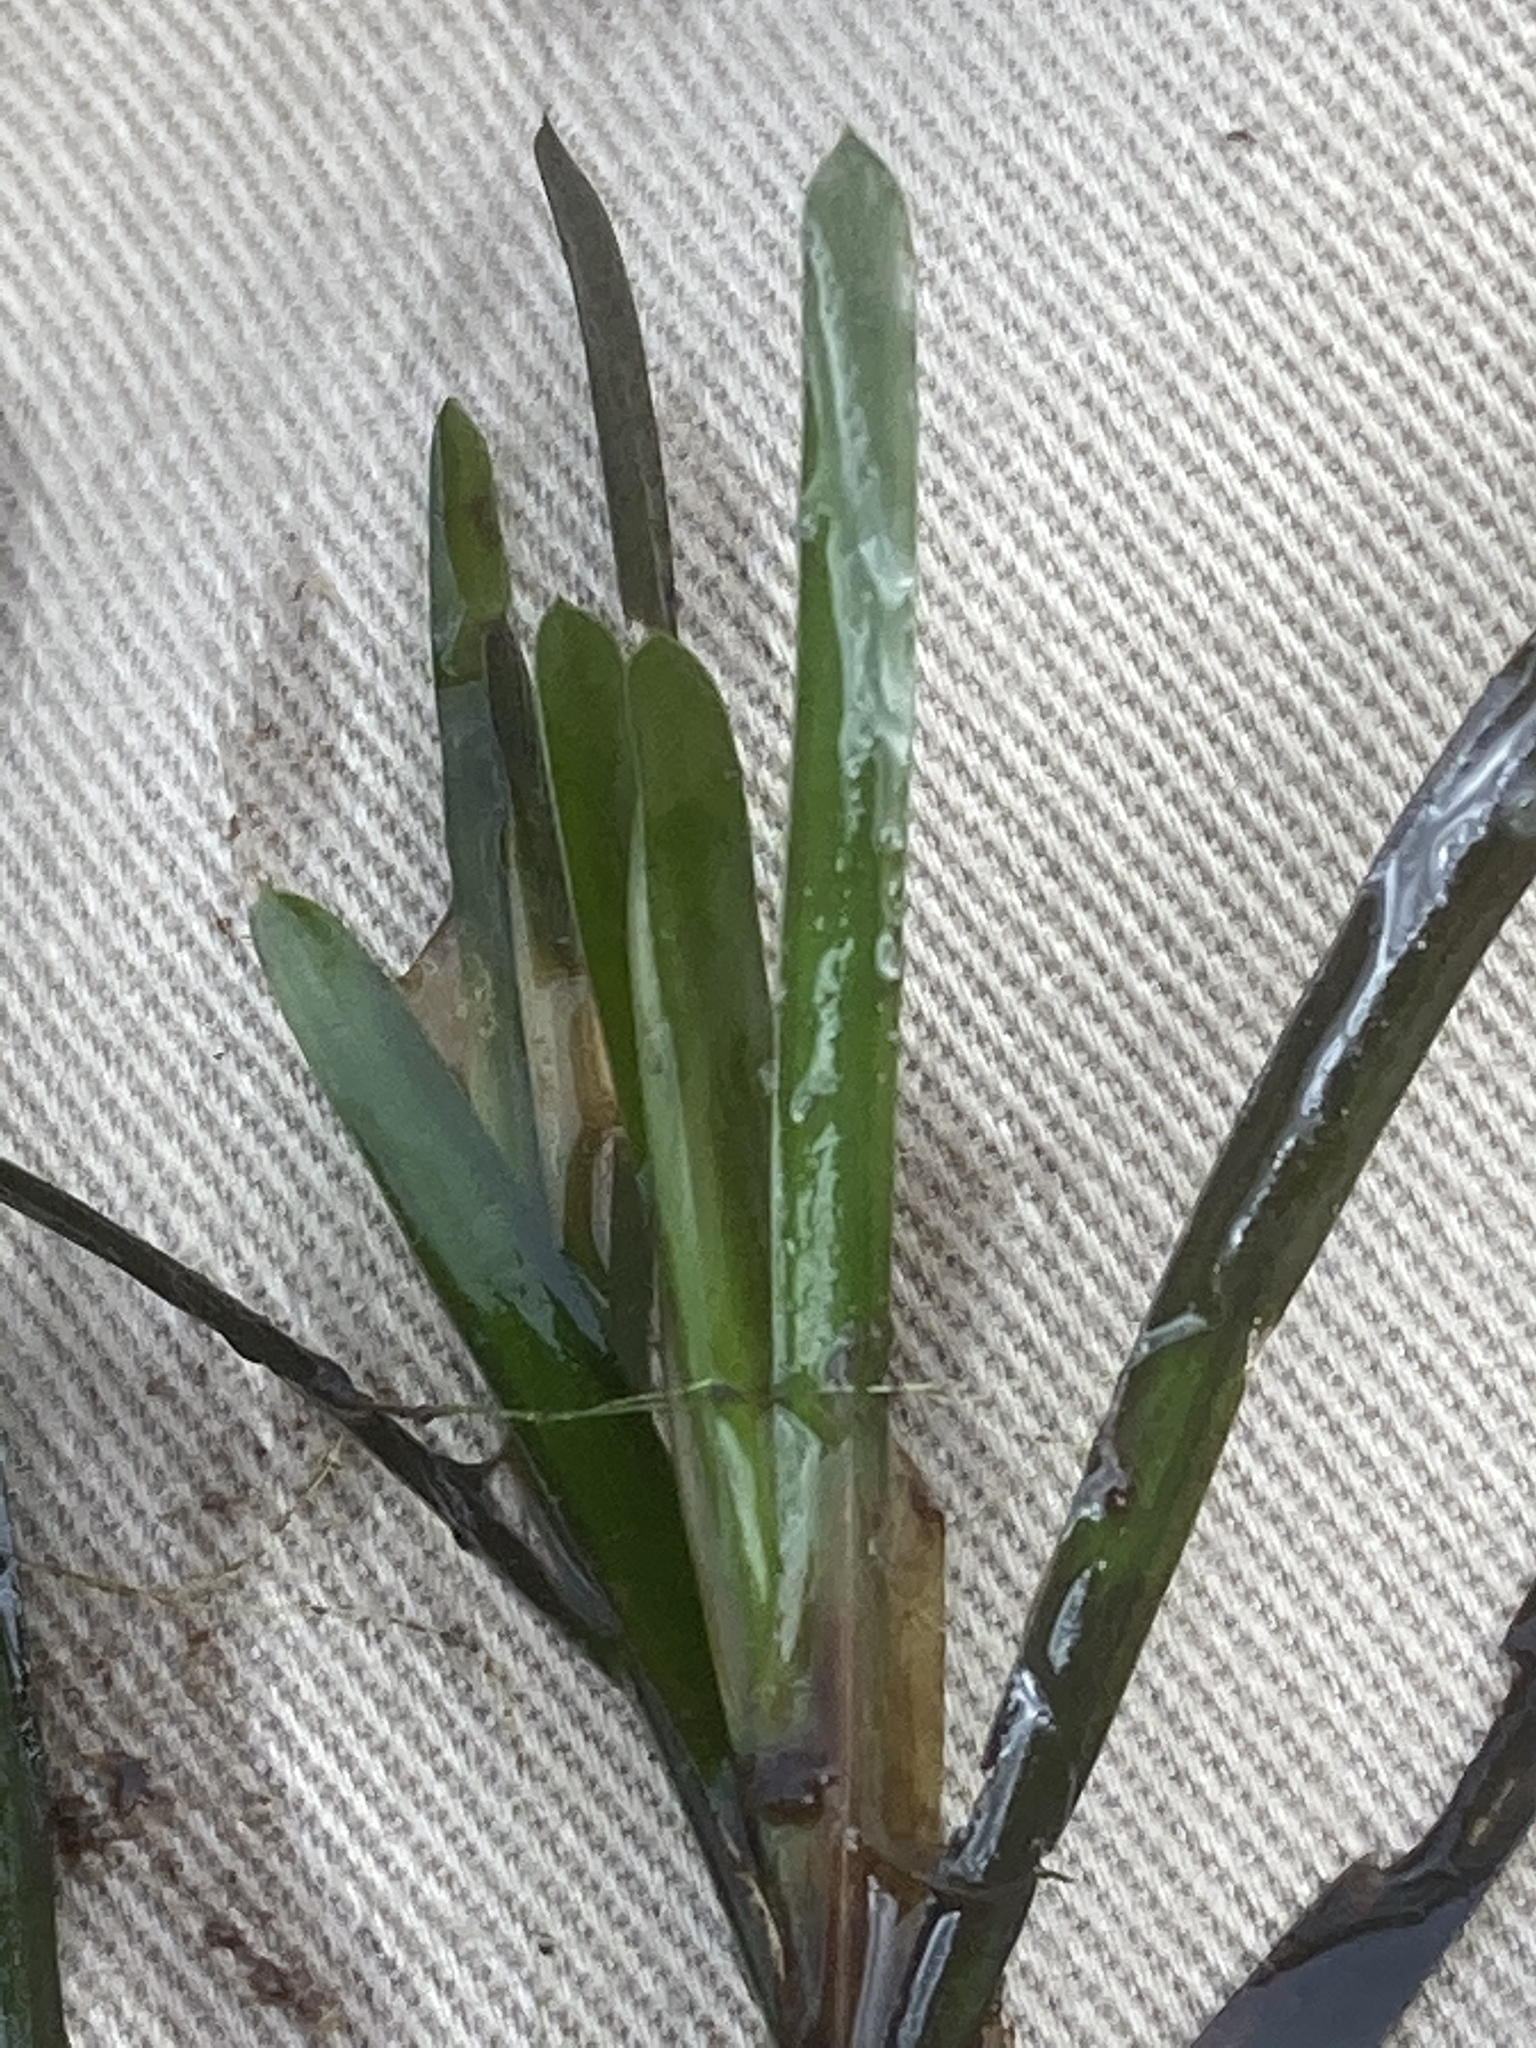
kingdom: Plantae
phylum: Tracheophyta
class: Liliopsida
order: Alismatales
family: Potamogetonaceae
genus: Potamogeton
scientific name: Potamogeton obtusifolius
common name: Blunt-leaved pondweed
